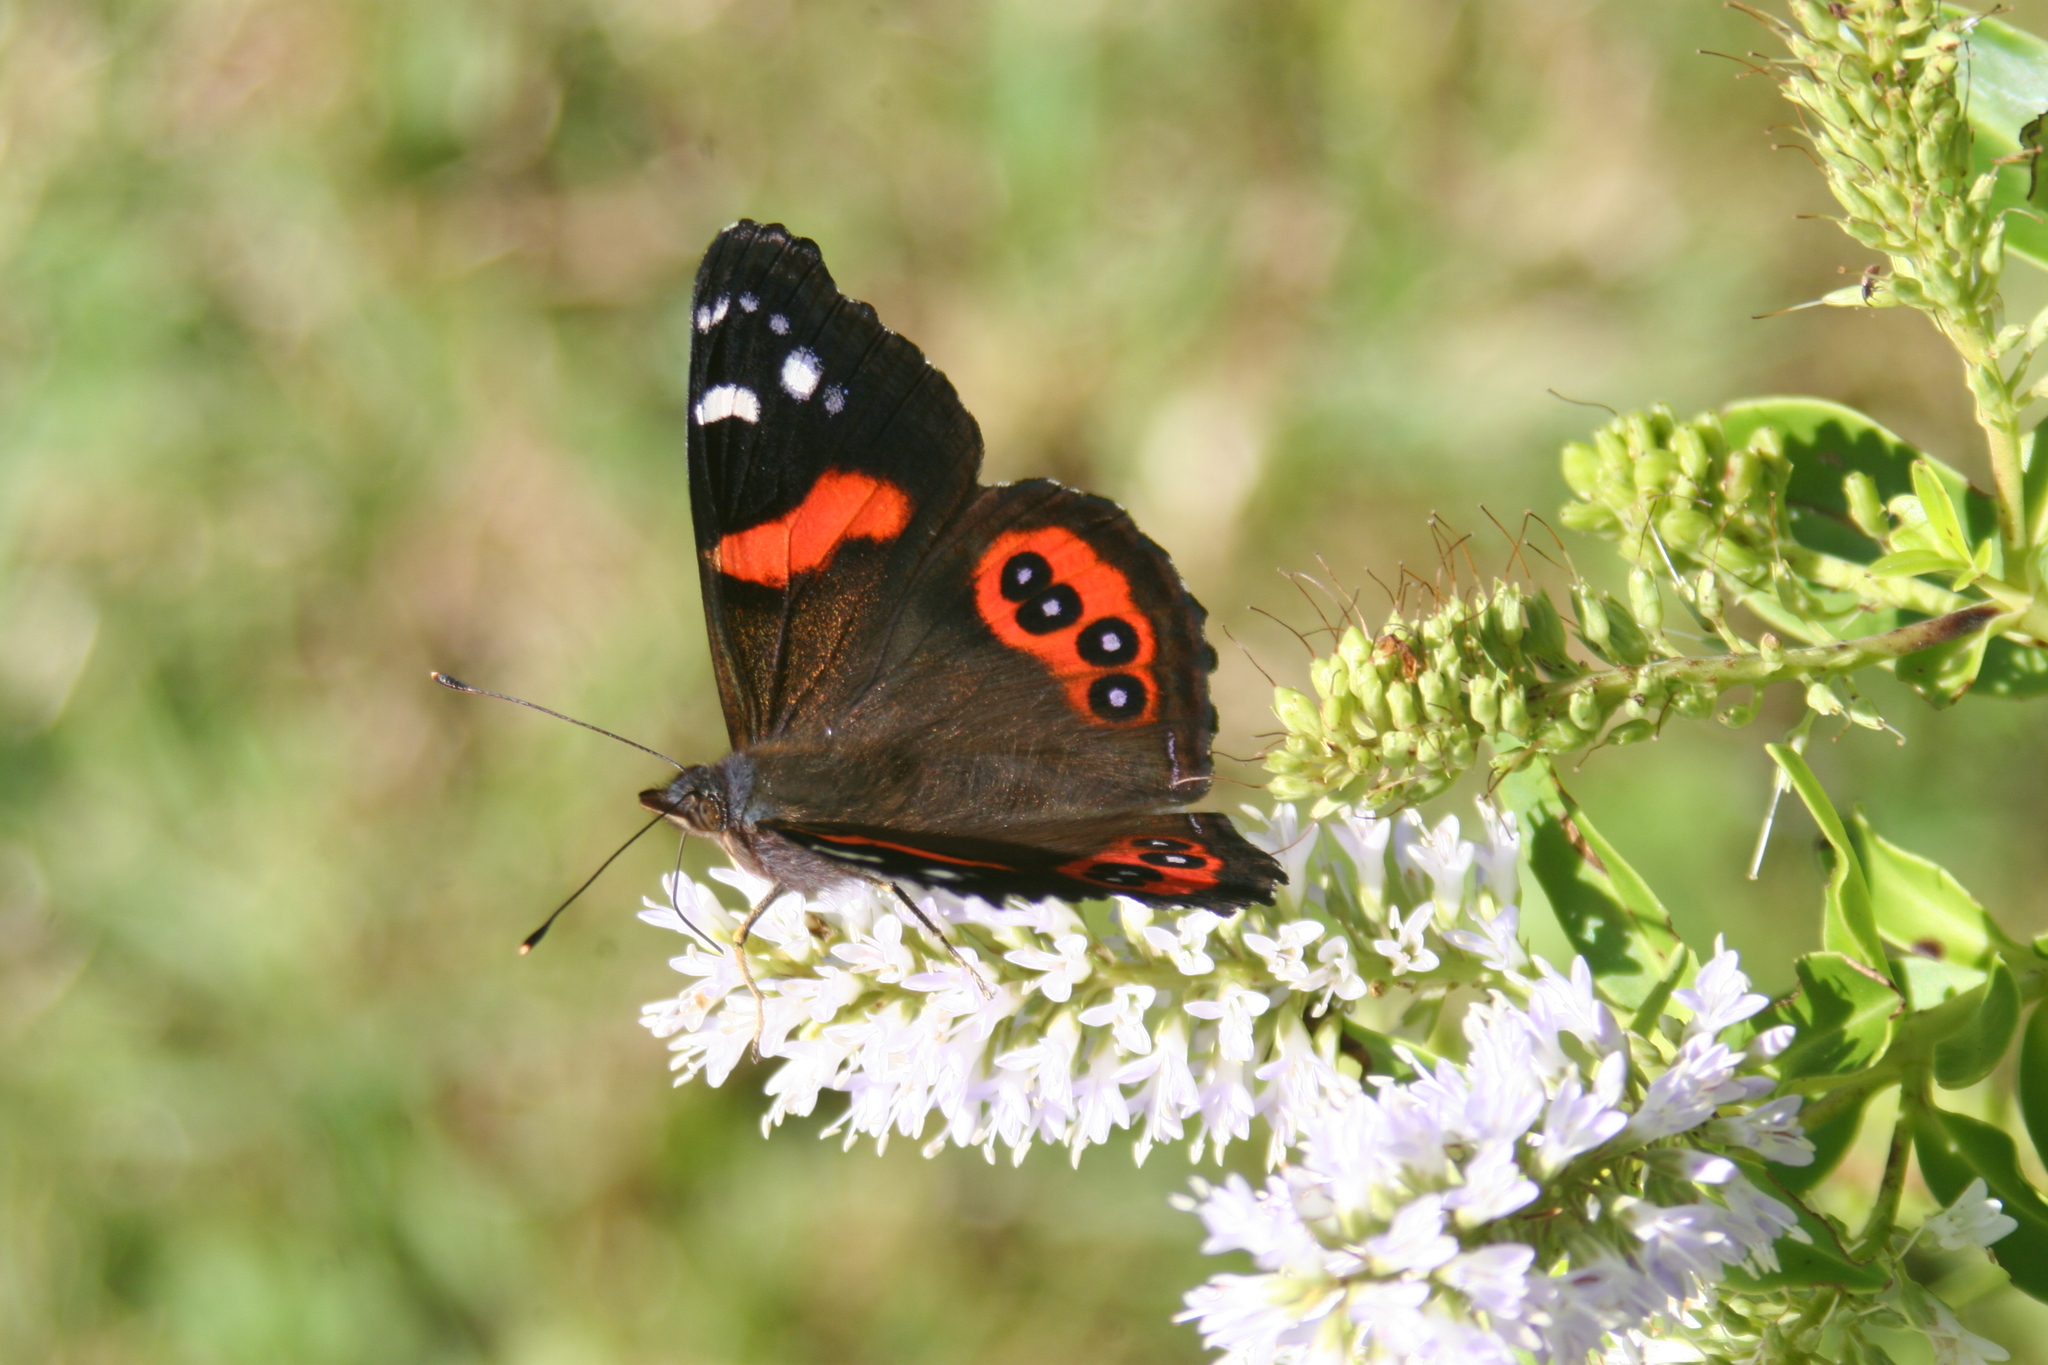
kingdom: Animalia
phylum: Arthropoda
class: Insecta
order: Lepidoptera
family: Nymphalidae
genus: Vanessa
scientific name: Vanessa gonerilla
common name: New zealand red admiral
